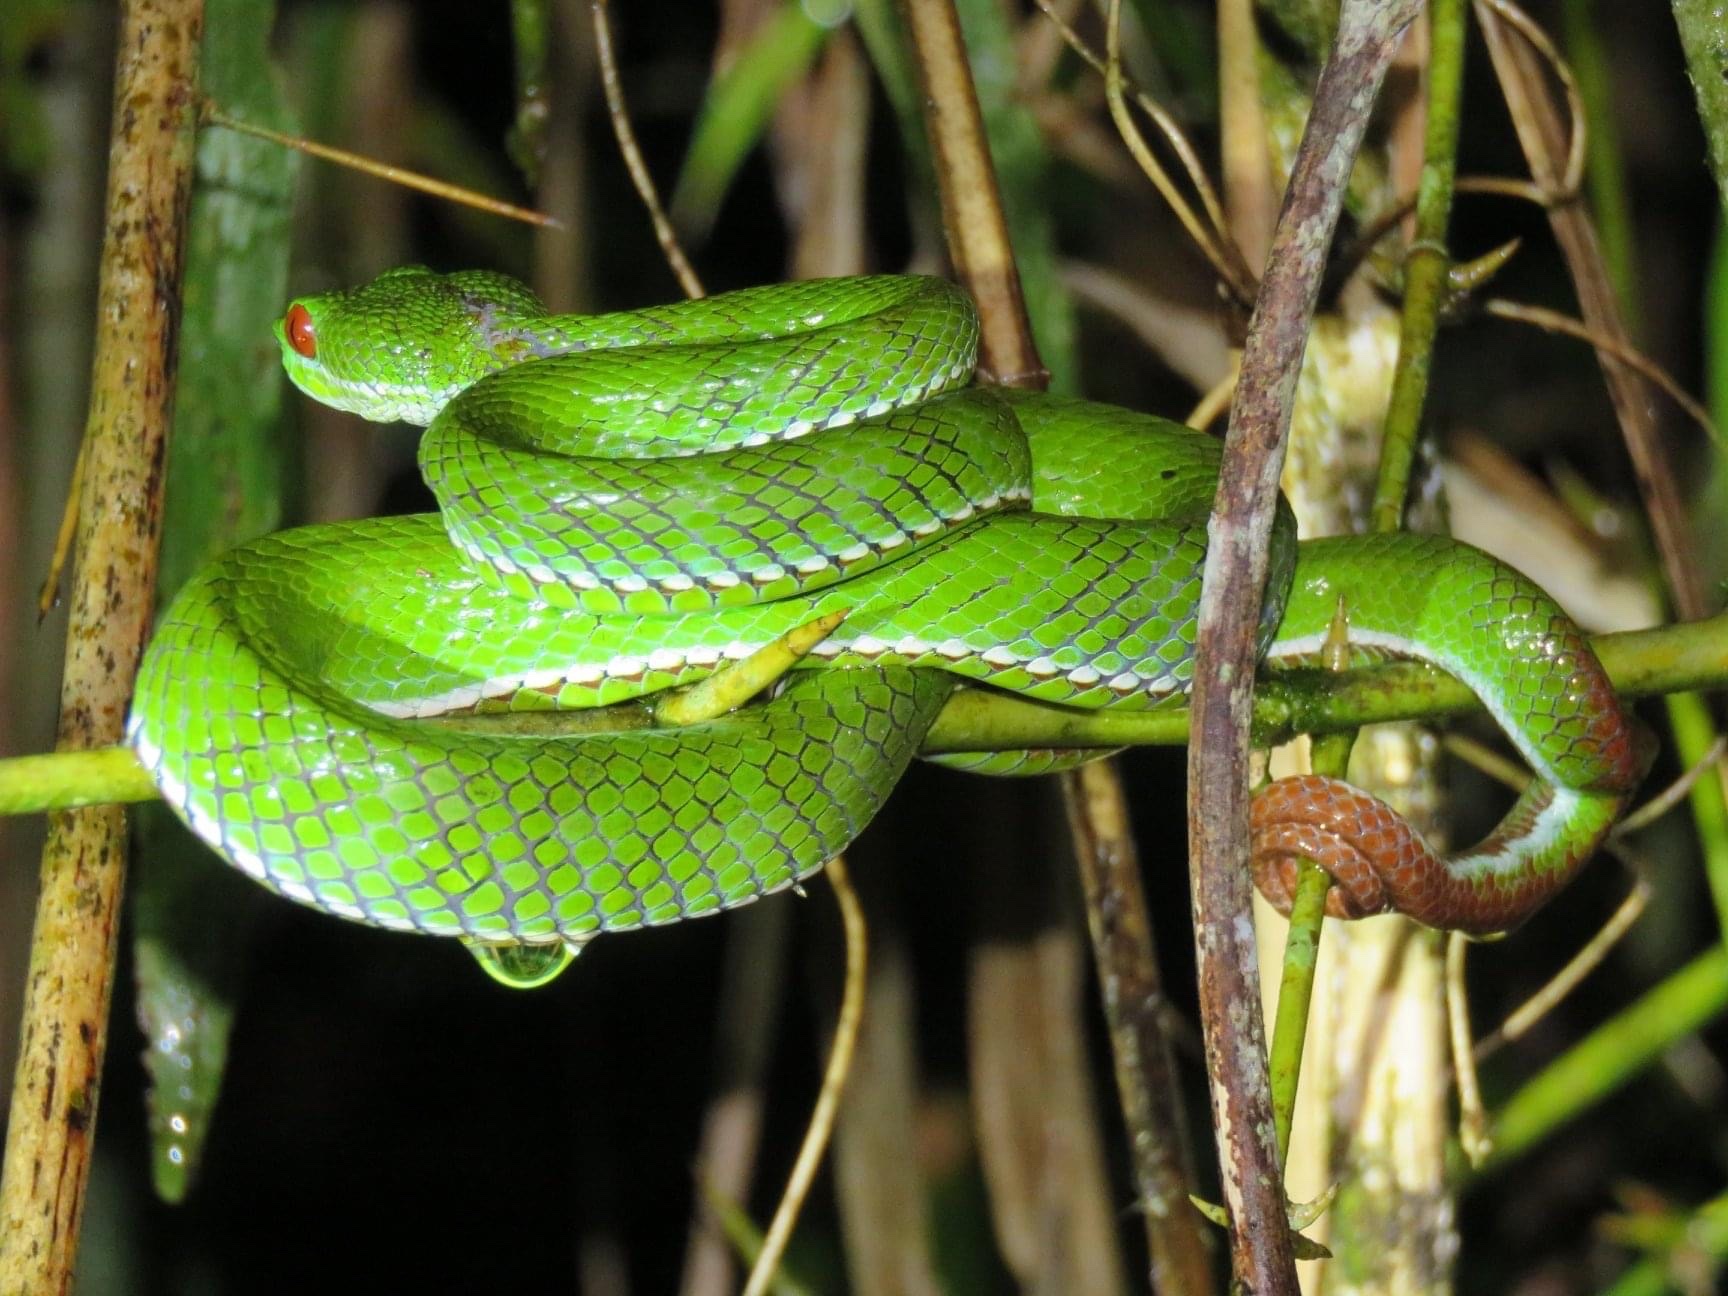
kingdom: Animalia
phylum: Chordata
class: Squamata
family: Viperidae
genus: Craspedocephalus
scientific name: Craspedocephalus rubeus
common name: Ruby-eyed green pitviper
